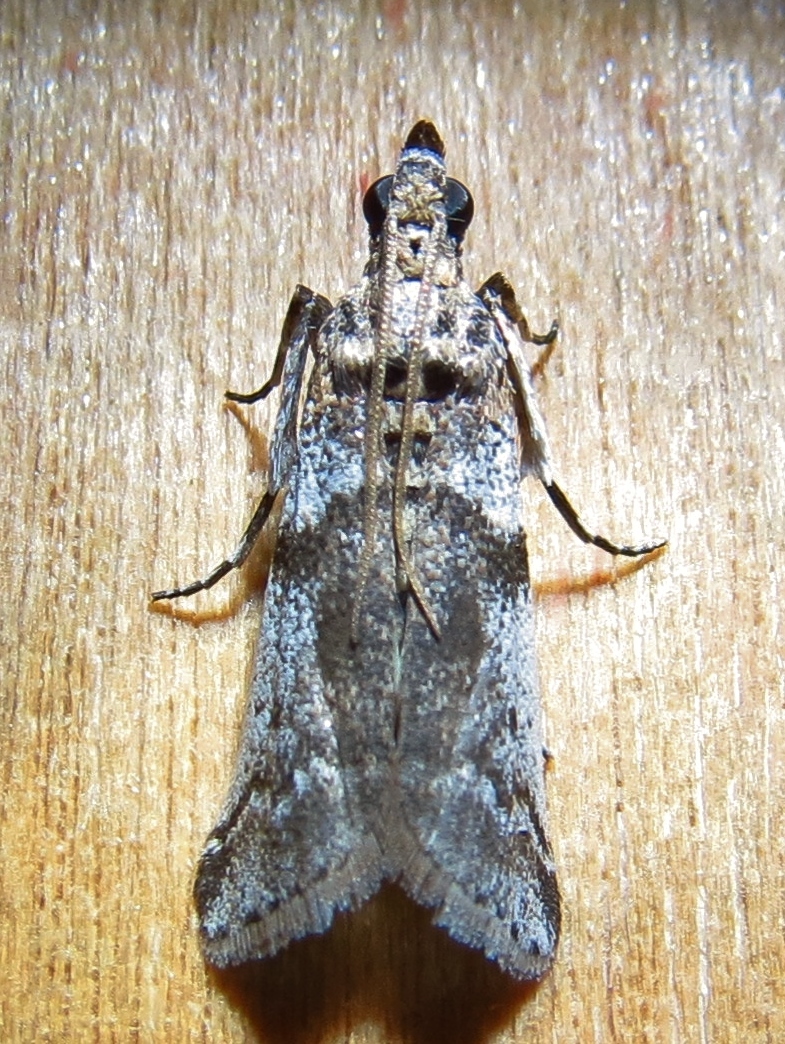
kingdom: Animalia
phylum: Arthropoda
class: Insecta
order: Lepidoptera
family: Pyralidae
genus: Laetilia
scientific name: Laetilia coccidivora
